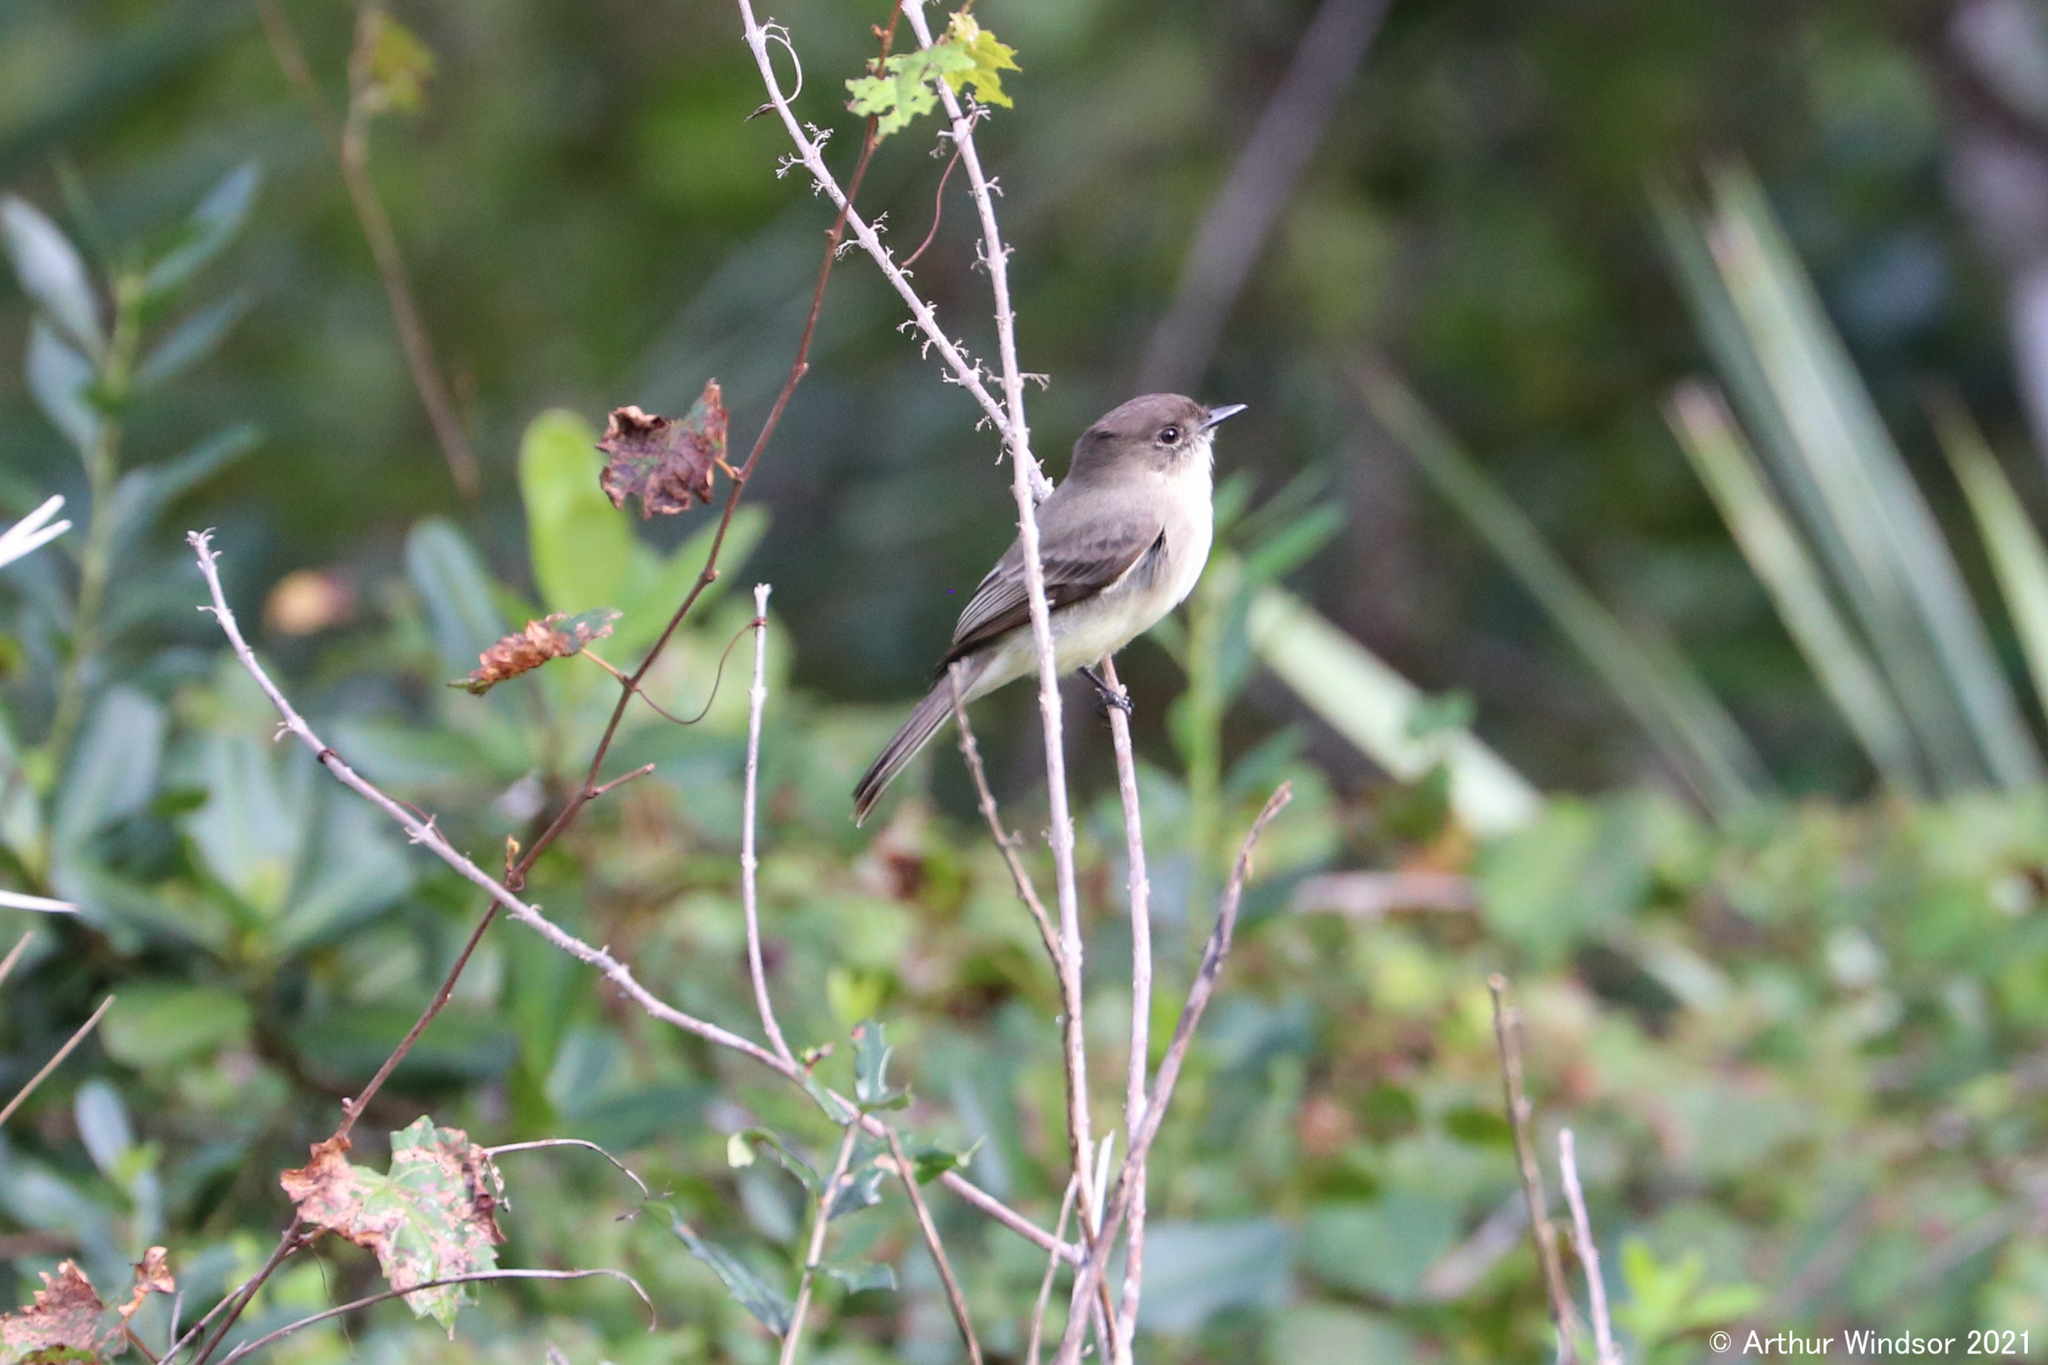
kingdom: Animalia
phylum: Chordata
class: Aves
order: Passeriformes
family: Tyrannidae
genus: Sayornis
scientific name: Sayornis phoebe
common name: Eastern phoebe
